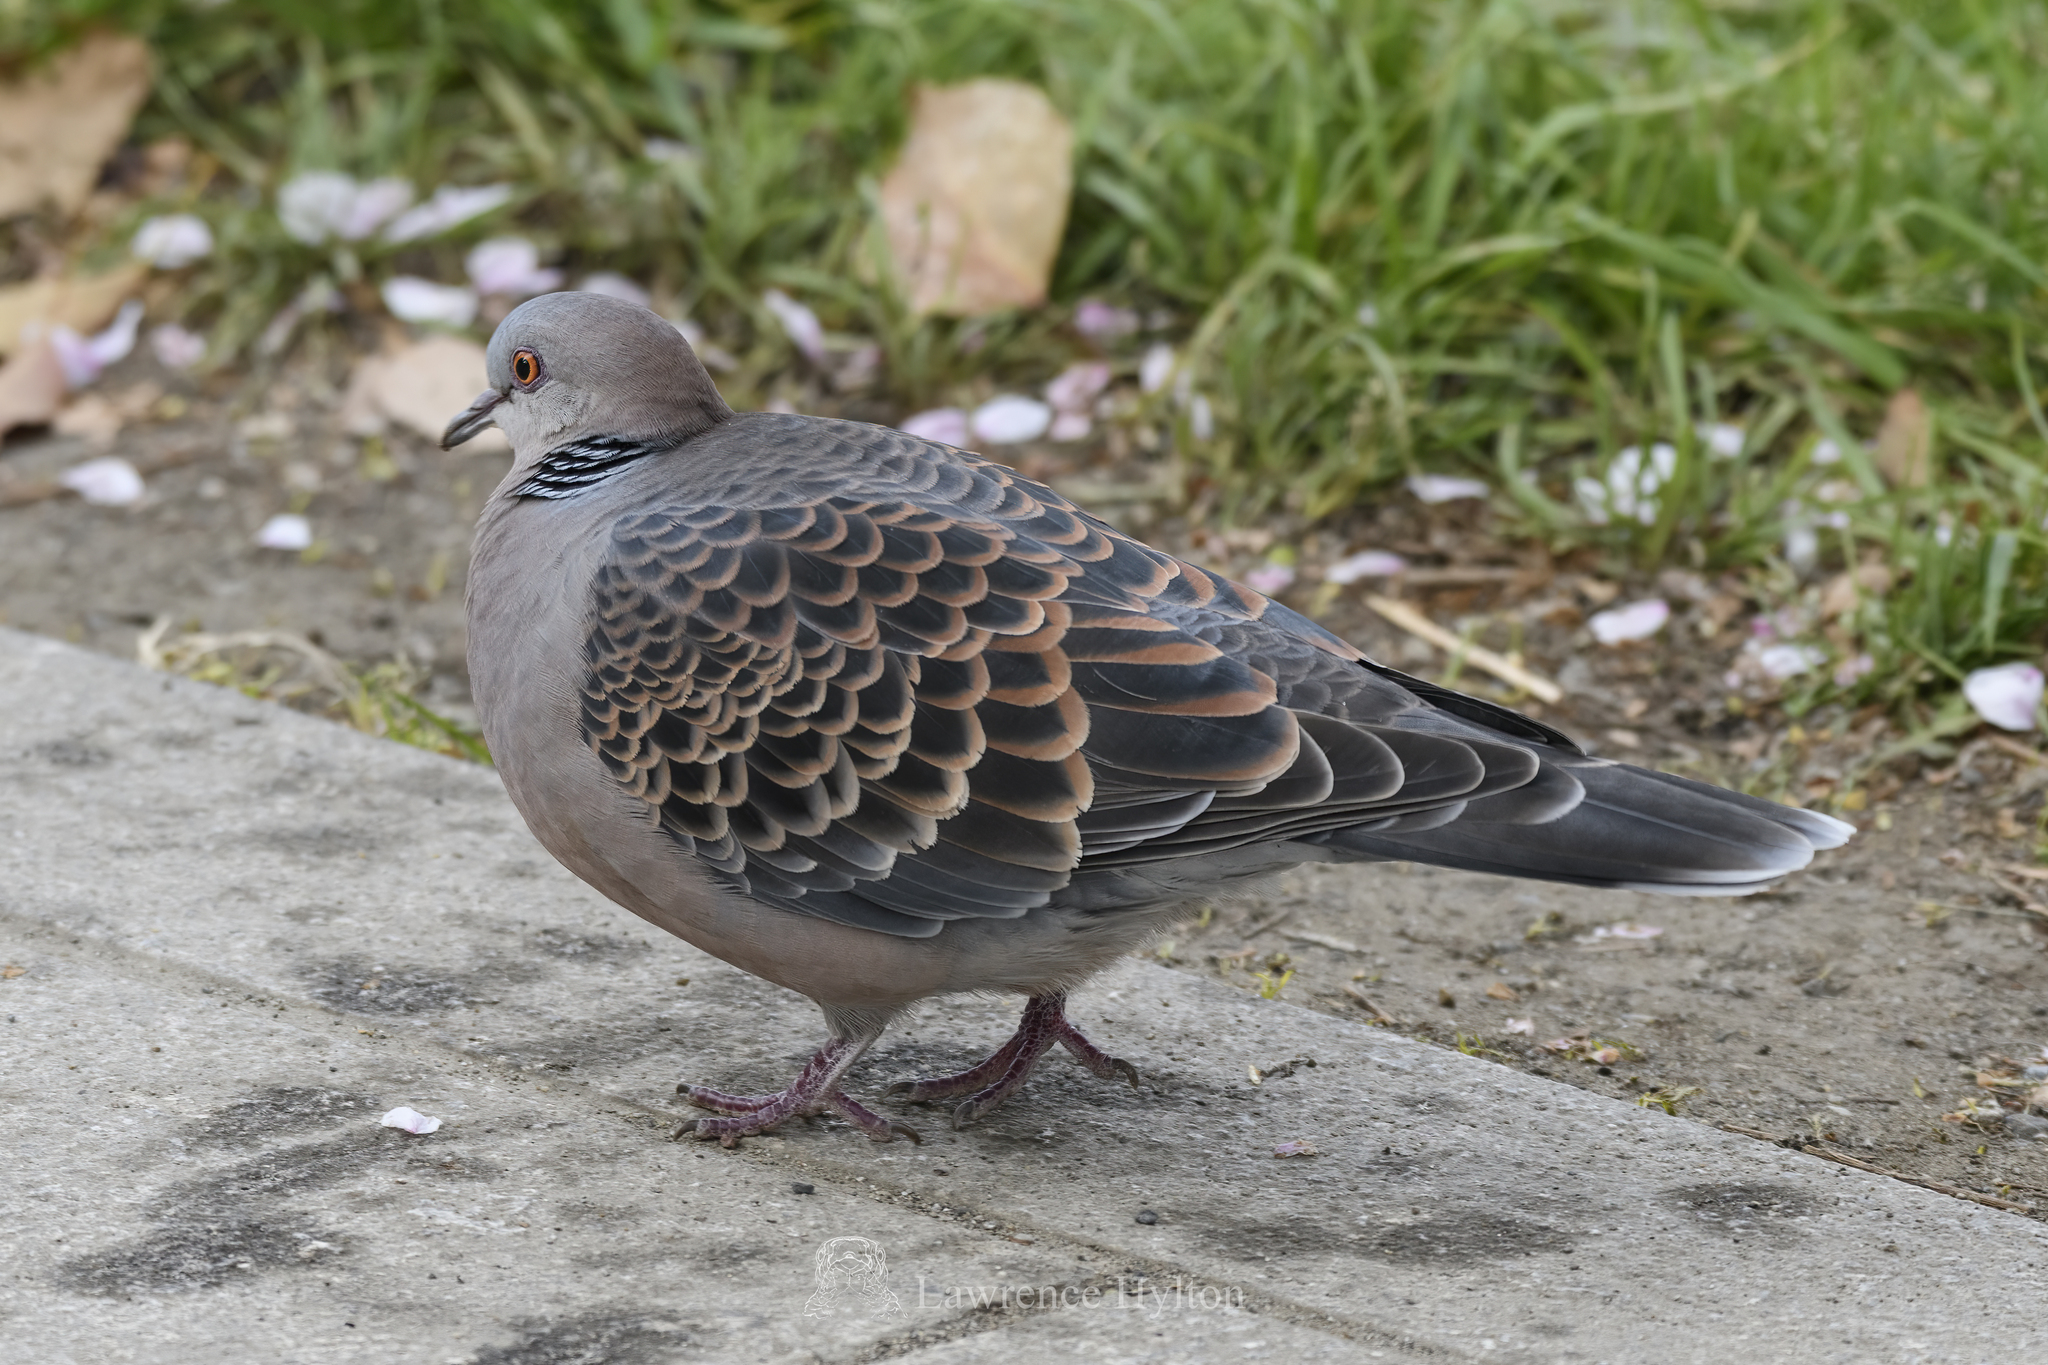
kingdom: Animalia
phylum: Chordata
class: Aves
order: Columbiformes
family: Columbidae
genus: Streptopelia
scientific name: Streptopelia orientalis
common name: Oriental turtle dove
